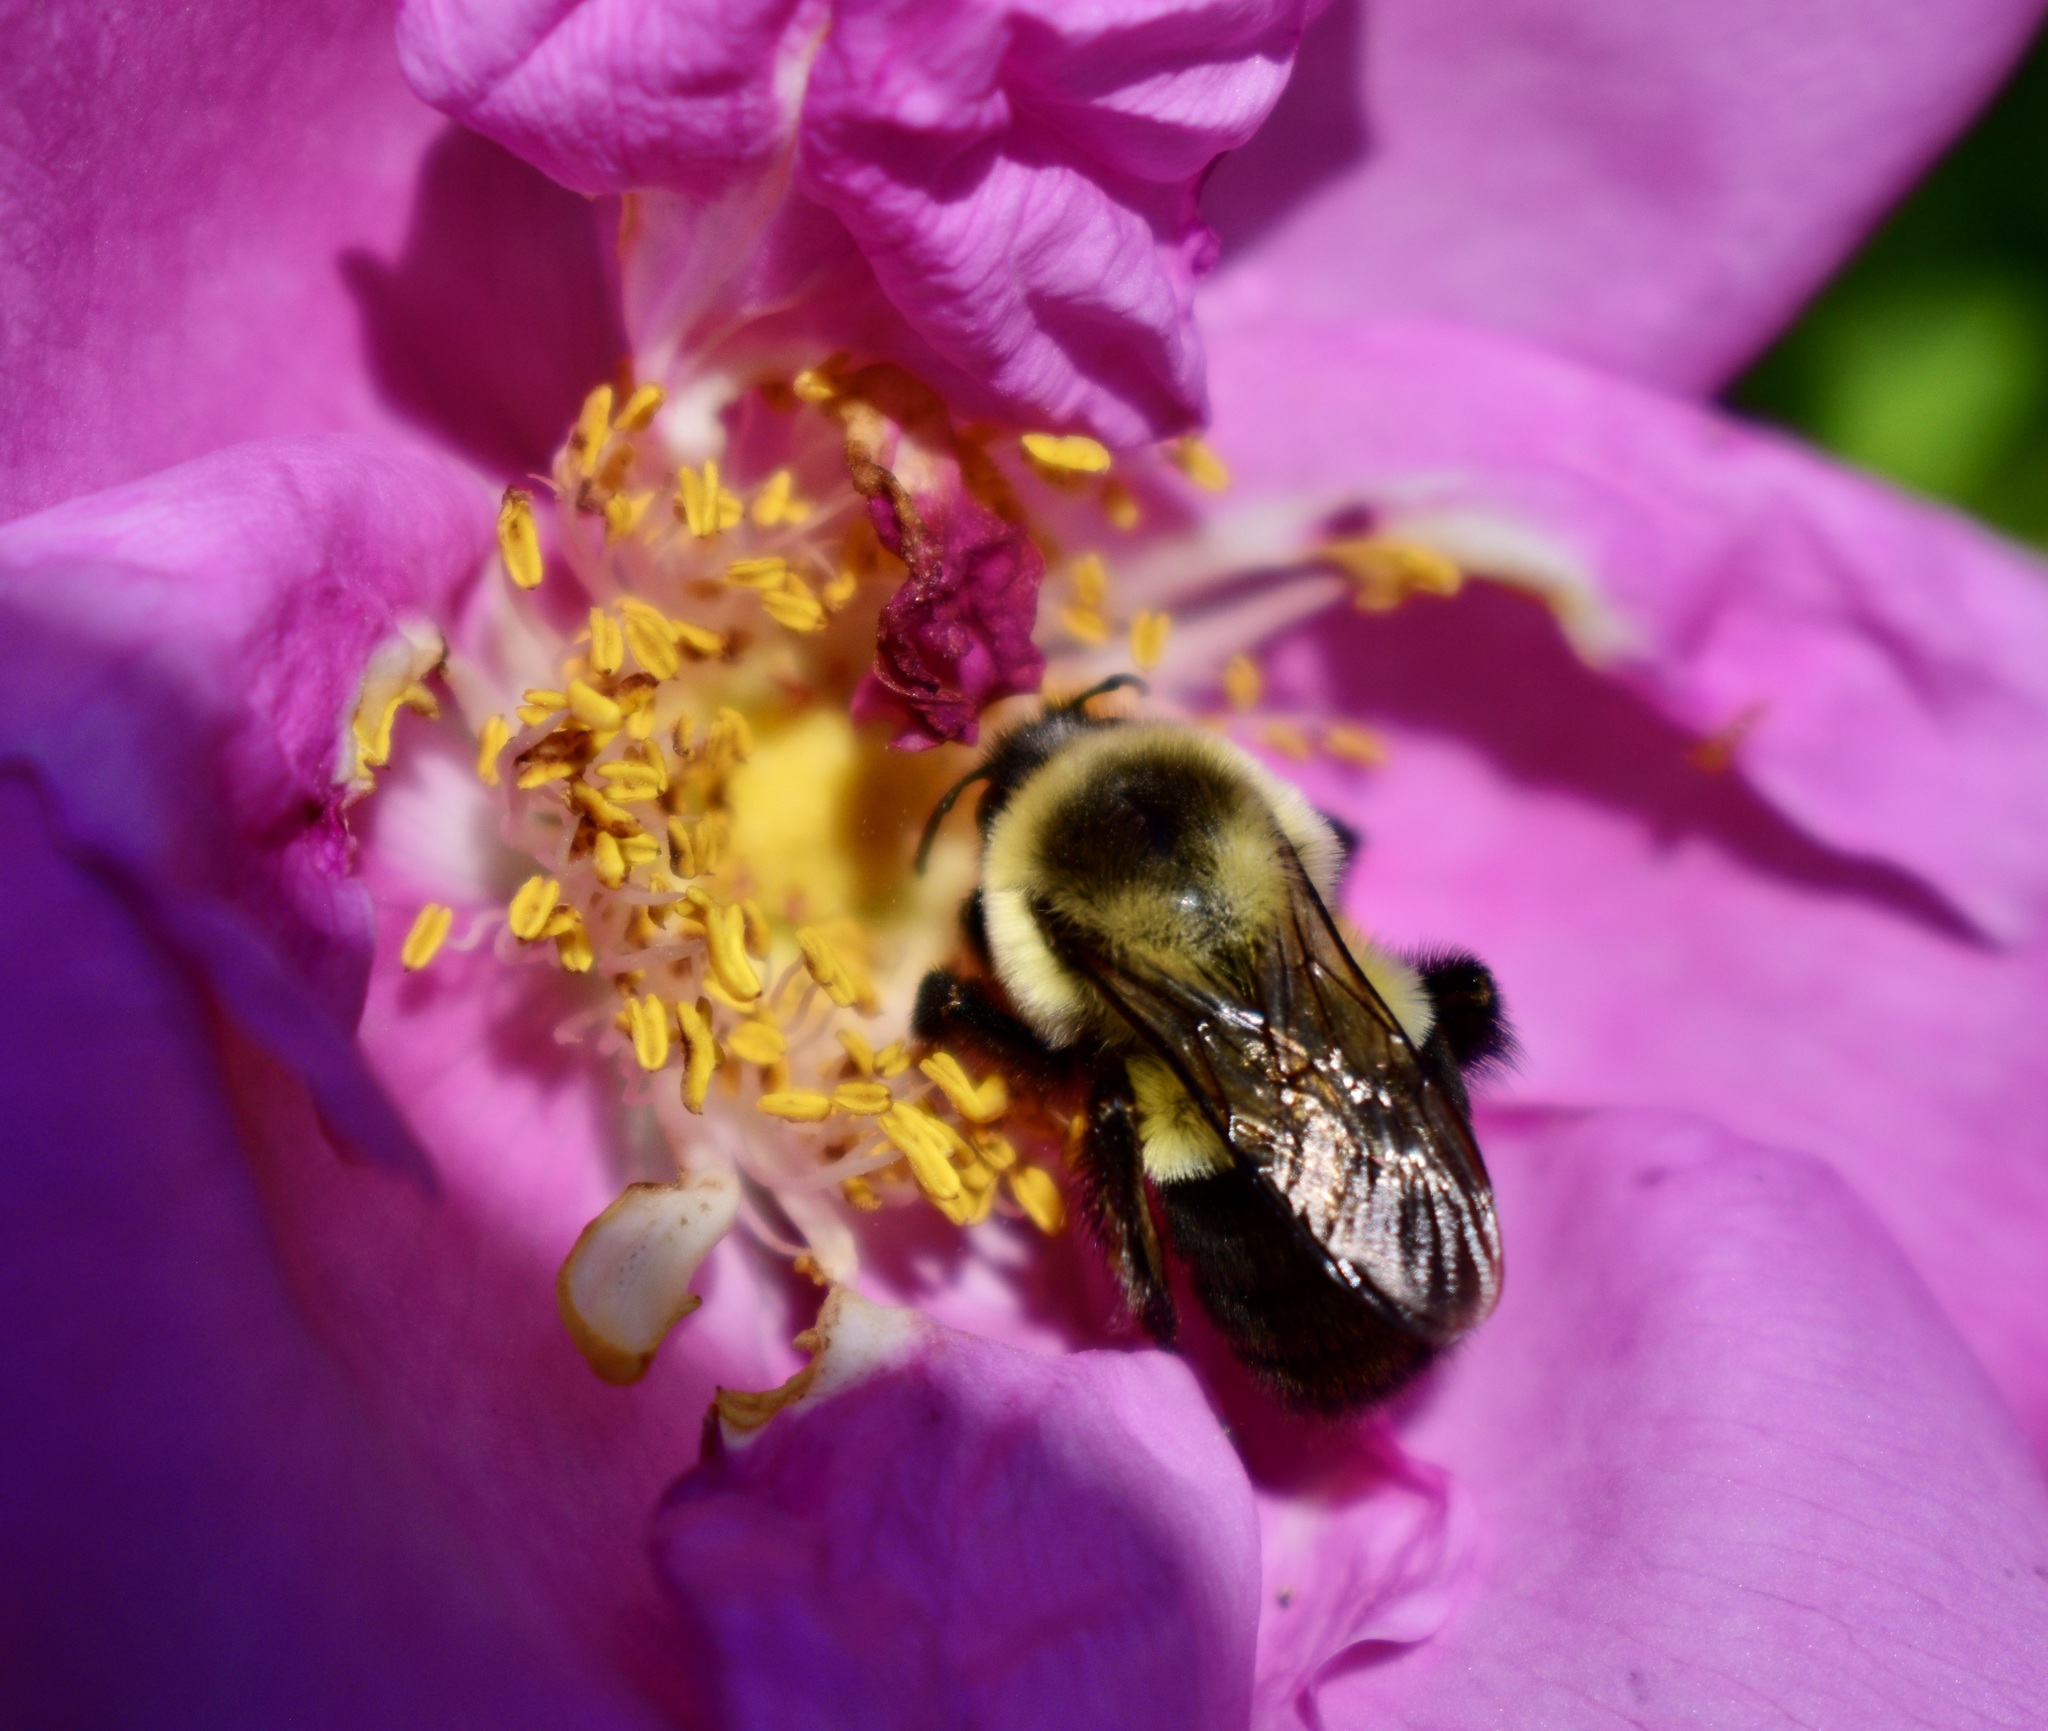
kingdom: Animalia
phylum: Arthropoda
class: Insecta
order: Hymenoptera
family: Apidae
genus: Bombus
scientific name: Bombus impatiens
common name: Common eastern bumble bee
